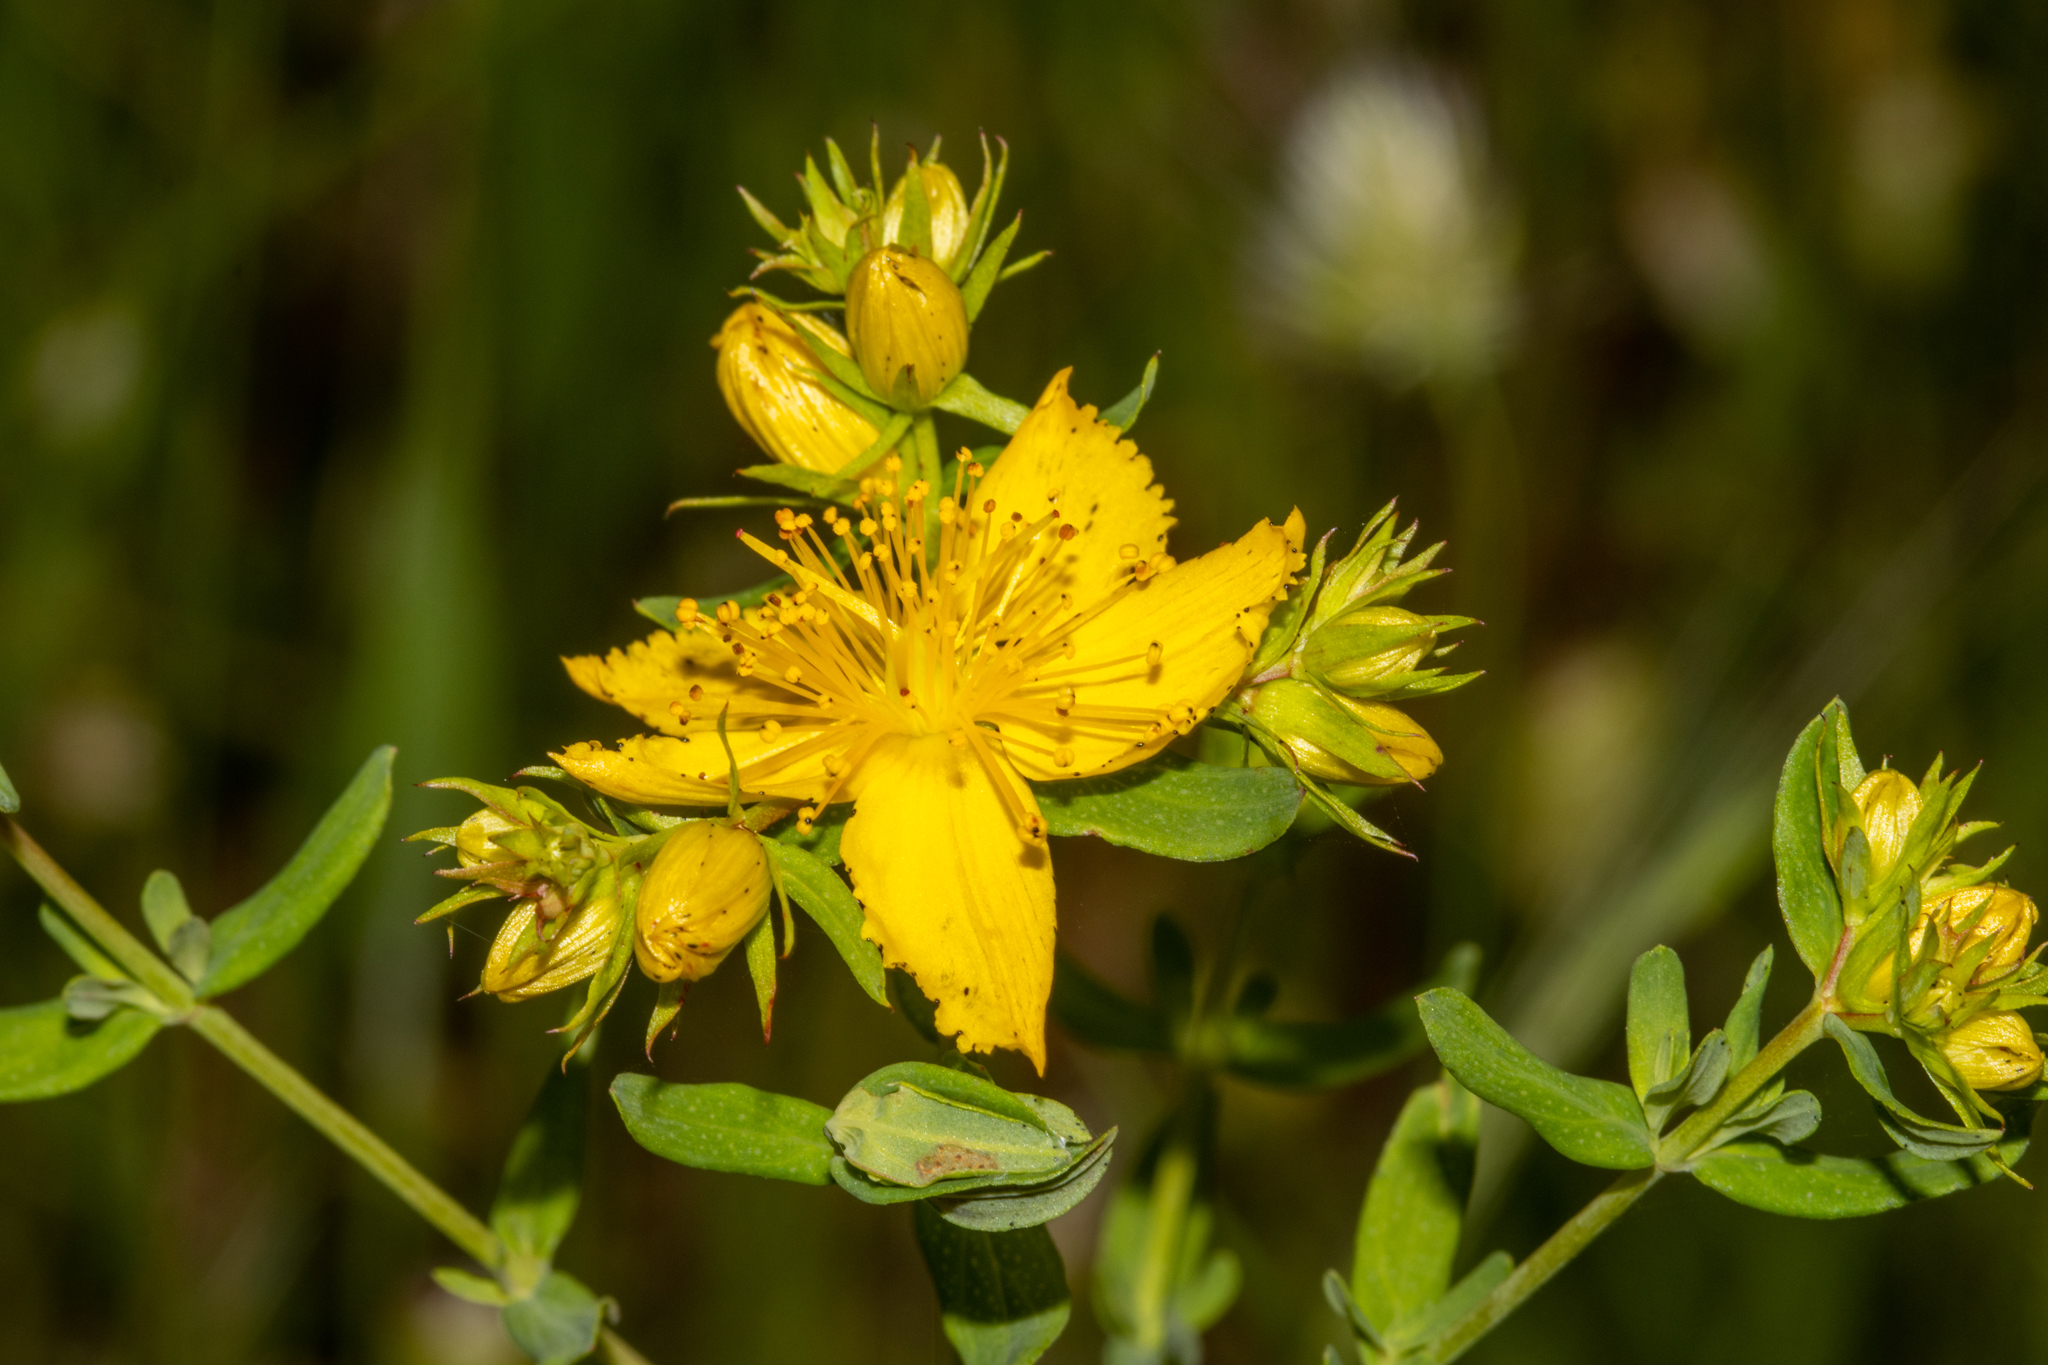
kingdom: Plantae
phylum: Tracheophyta
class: Magnoliopsida
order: Malpighiales
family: Hypericaceae
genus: Hypericum
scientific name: Hypericum perforatum
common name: Common st. johnswort
